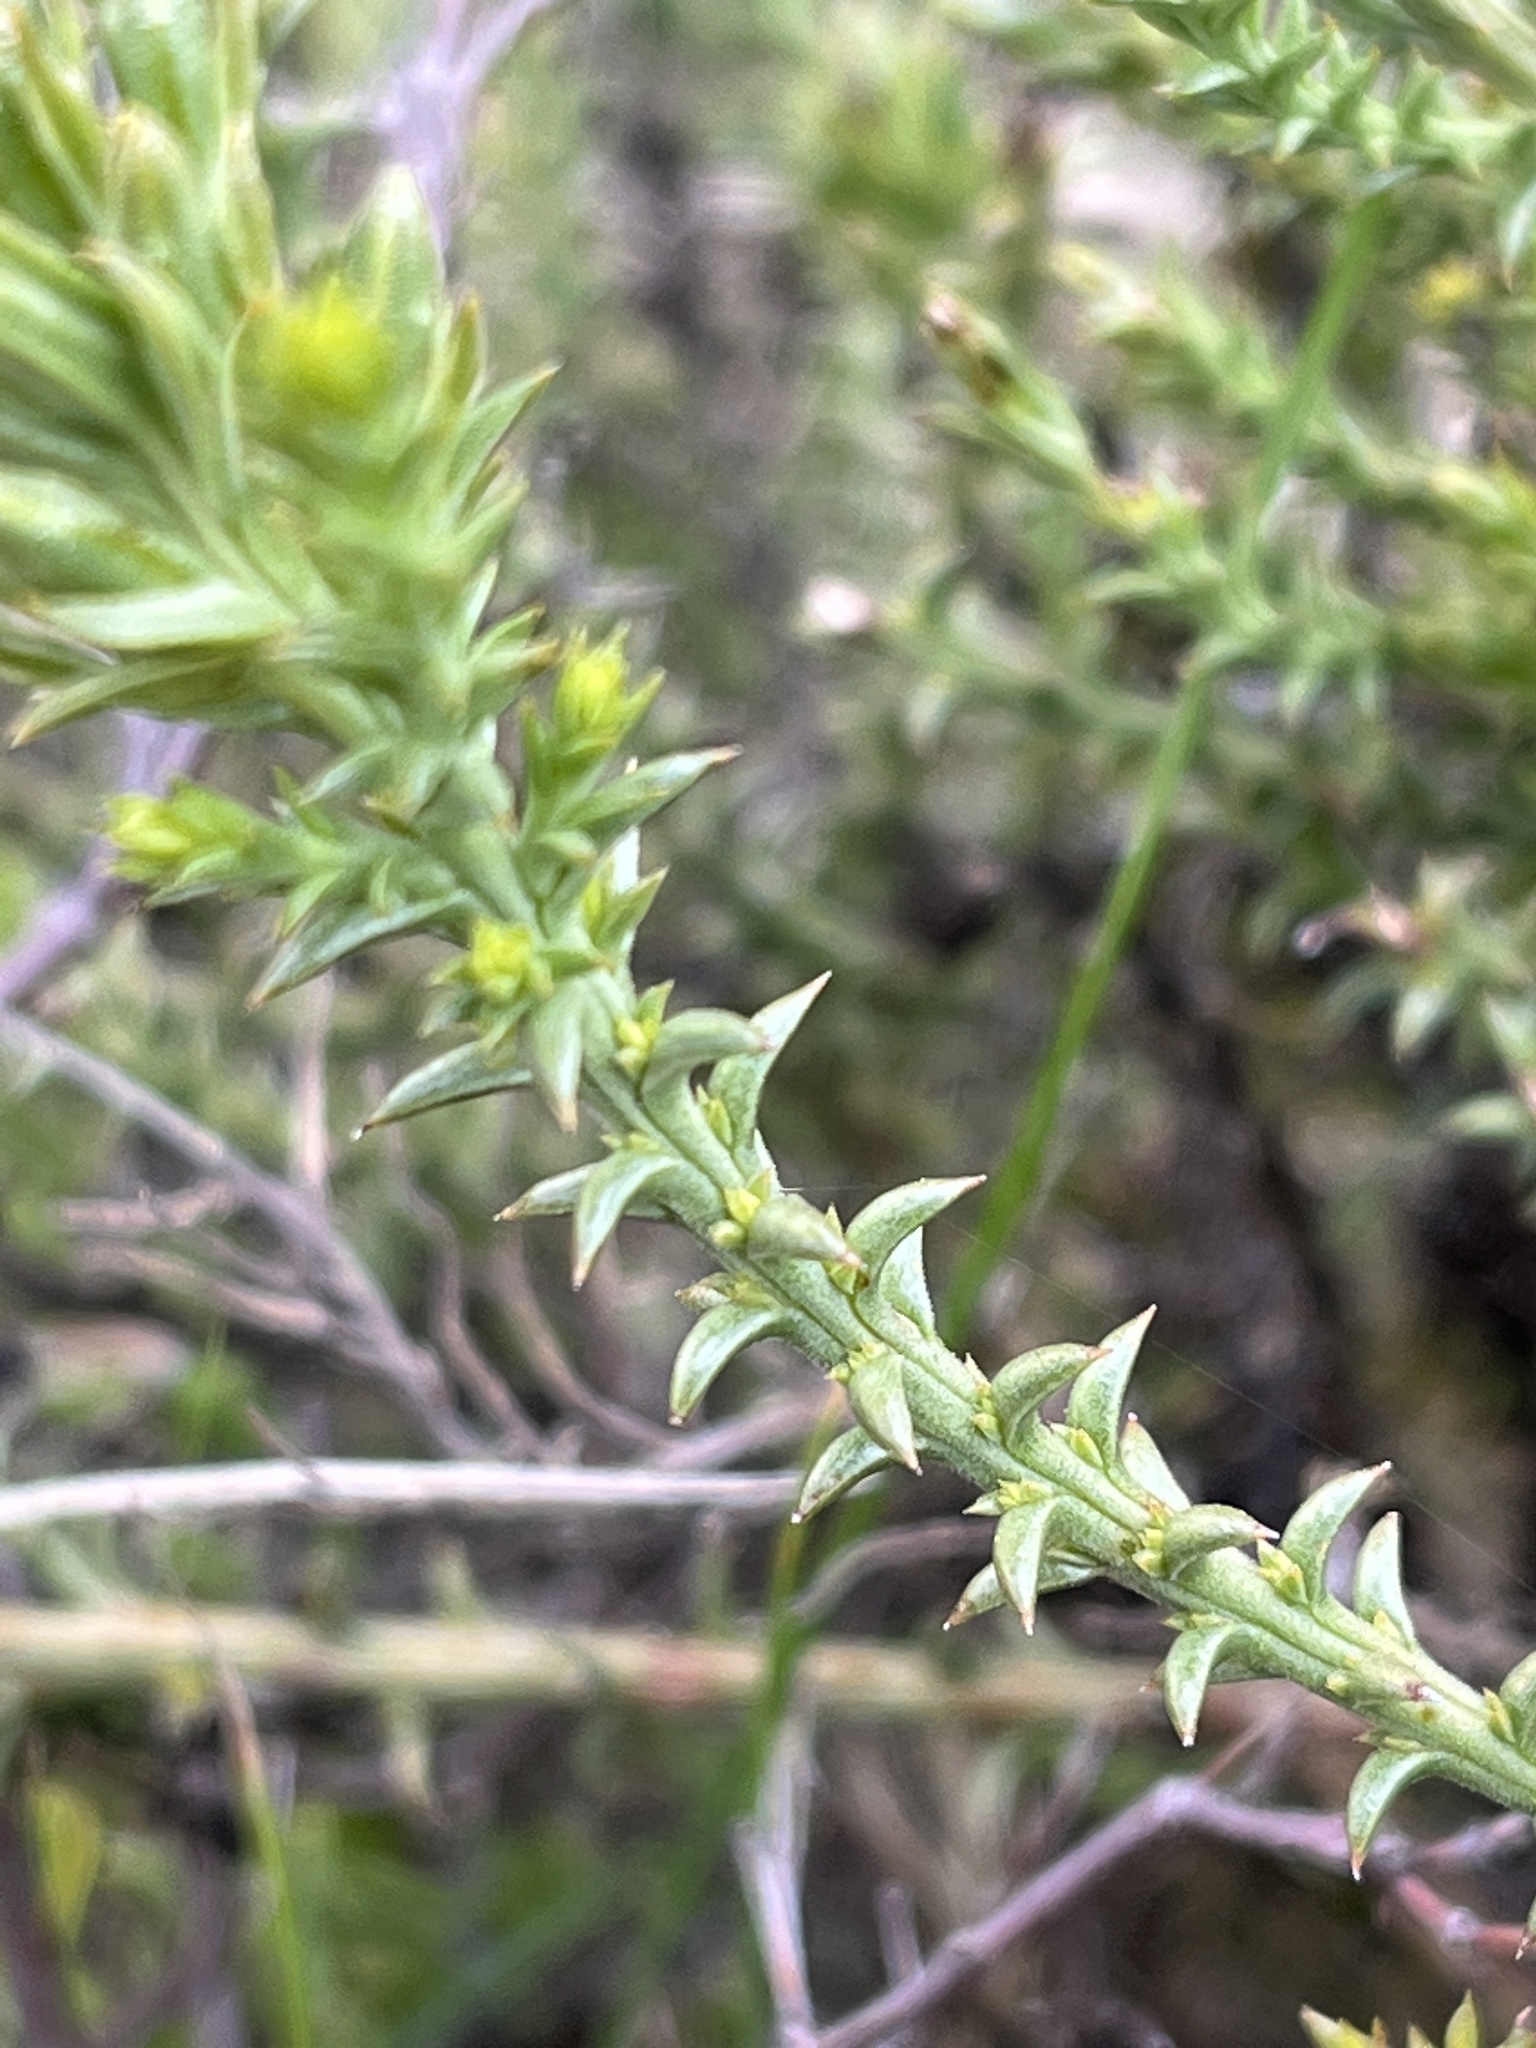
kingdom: Plantae
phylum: Tracheophyta
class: Magnoliopsida
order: Santalales
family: Thesiaceae
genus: Thesium
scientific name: Thesium sonderianum
